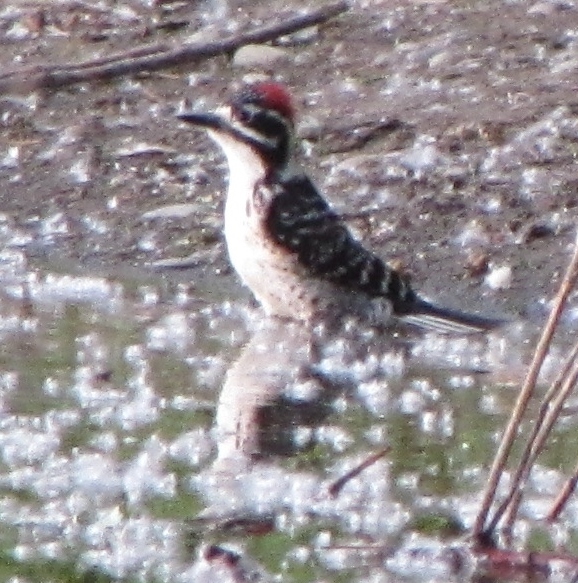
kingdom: Animalia
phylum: Chordata
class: Aves
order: Piciformes
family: Picidae
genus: Dryobates
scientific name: Dryobates nuttallii
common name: Nuttall's woodpecker
